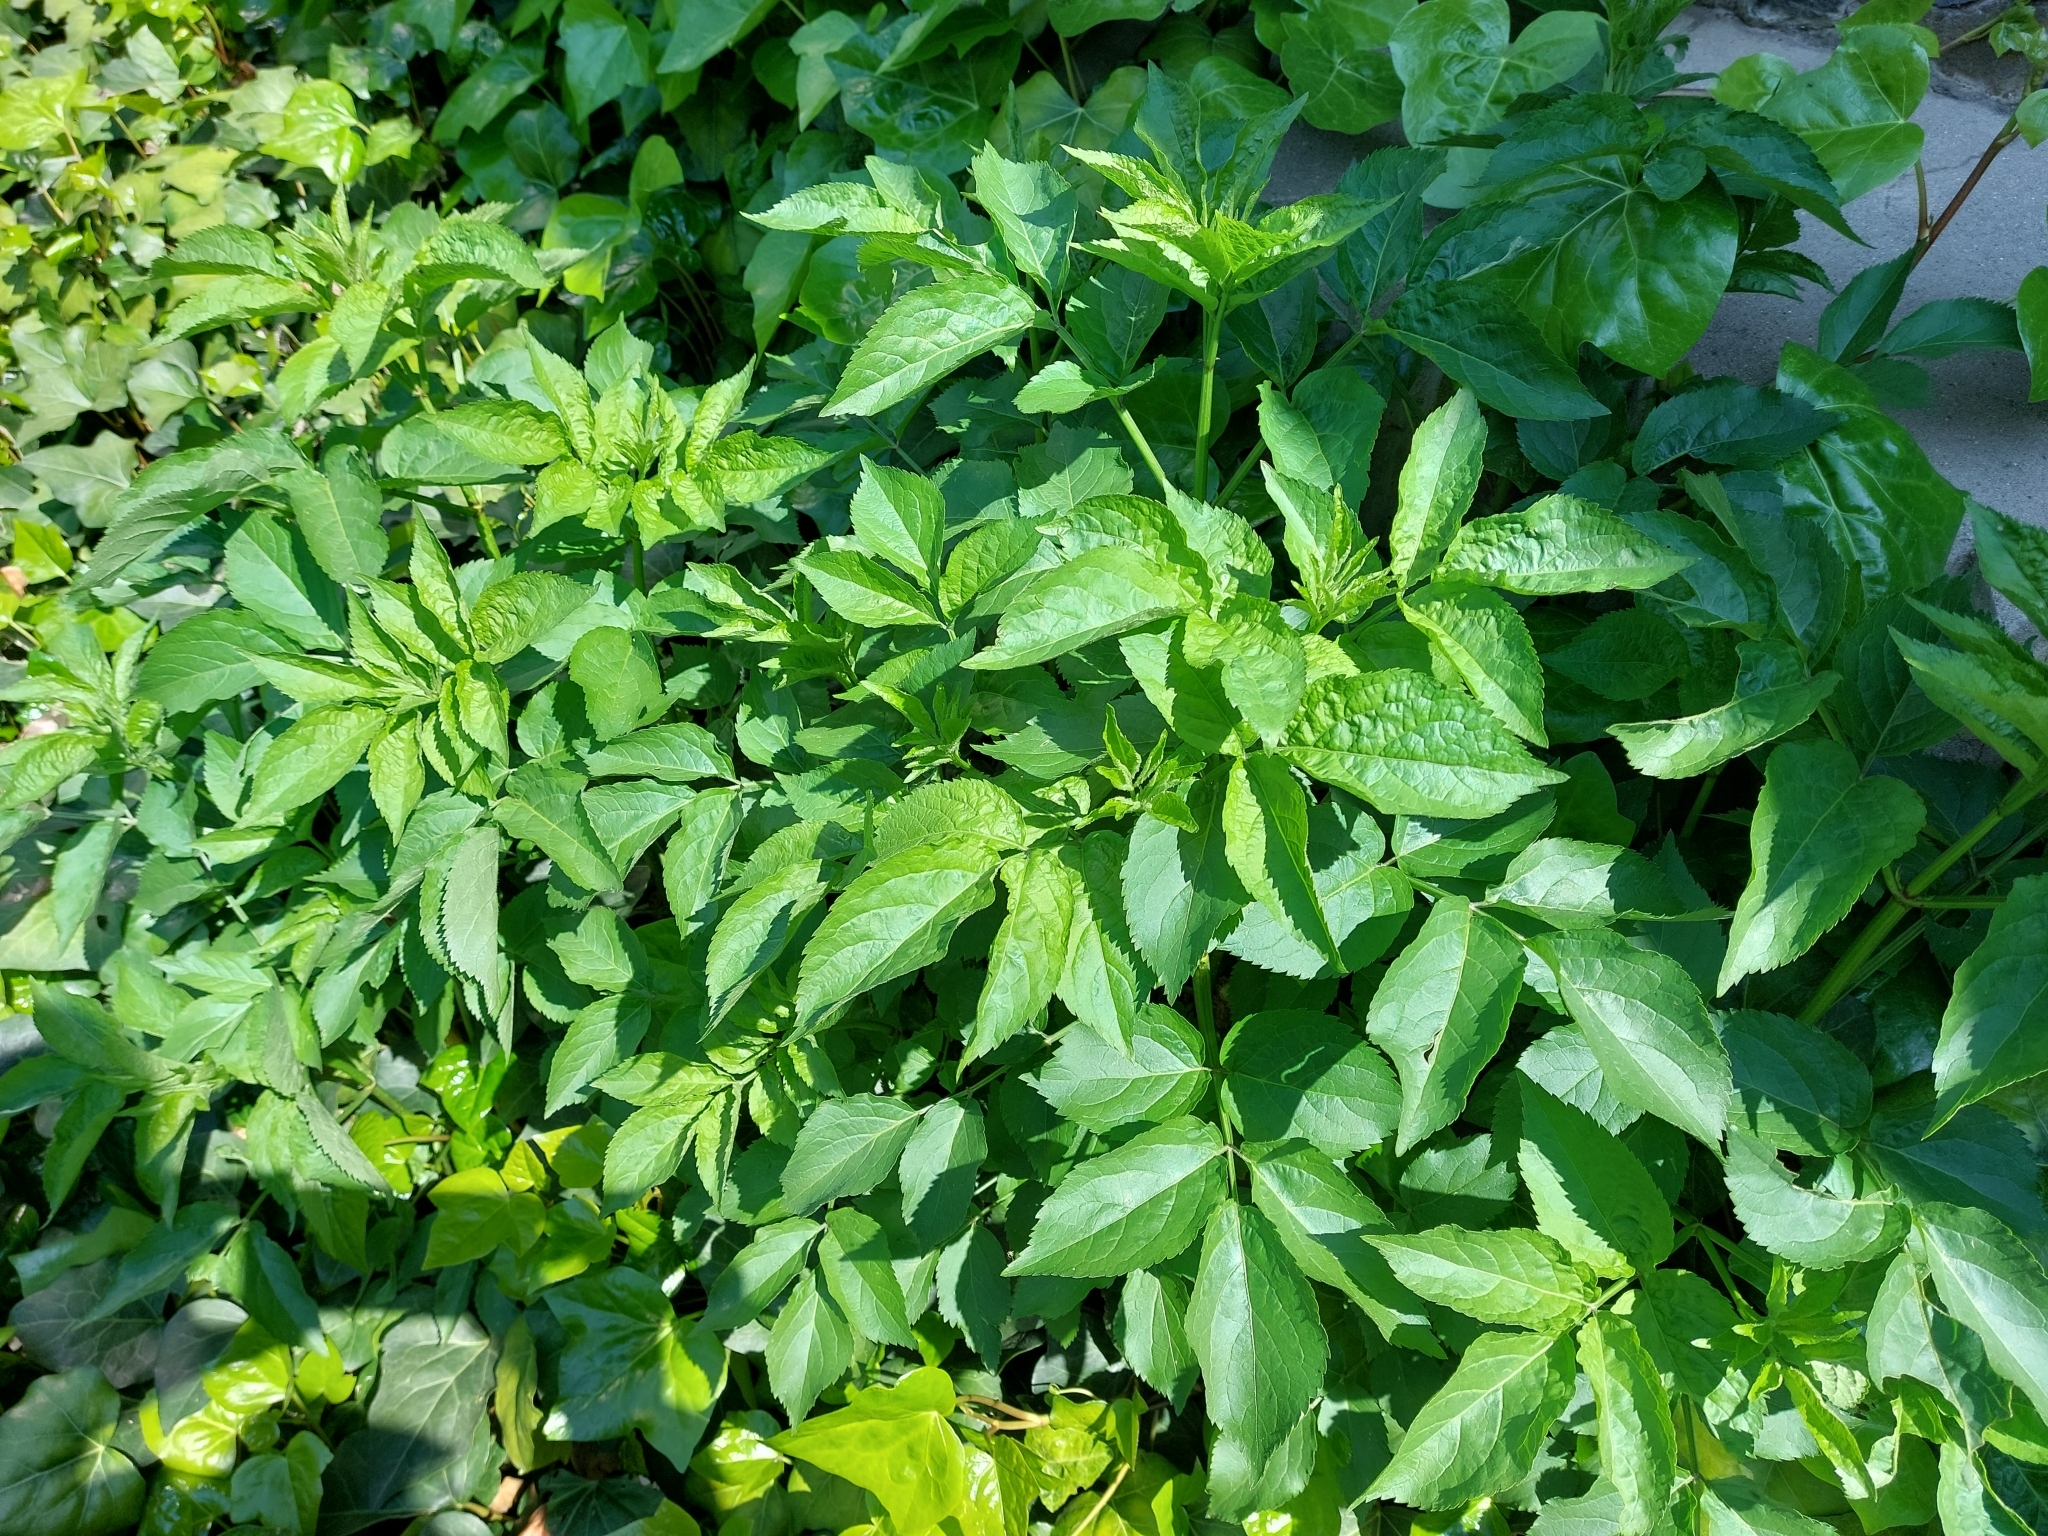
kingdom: Plantae
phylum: Tracheophyta
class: Magnoliopsida
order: Dipsacales
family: Viburnaceae
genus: Sambucus
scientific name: Sambucus nigra
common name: Elder
